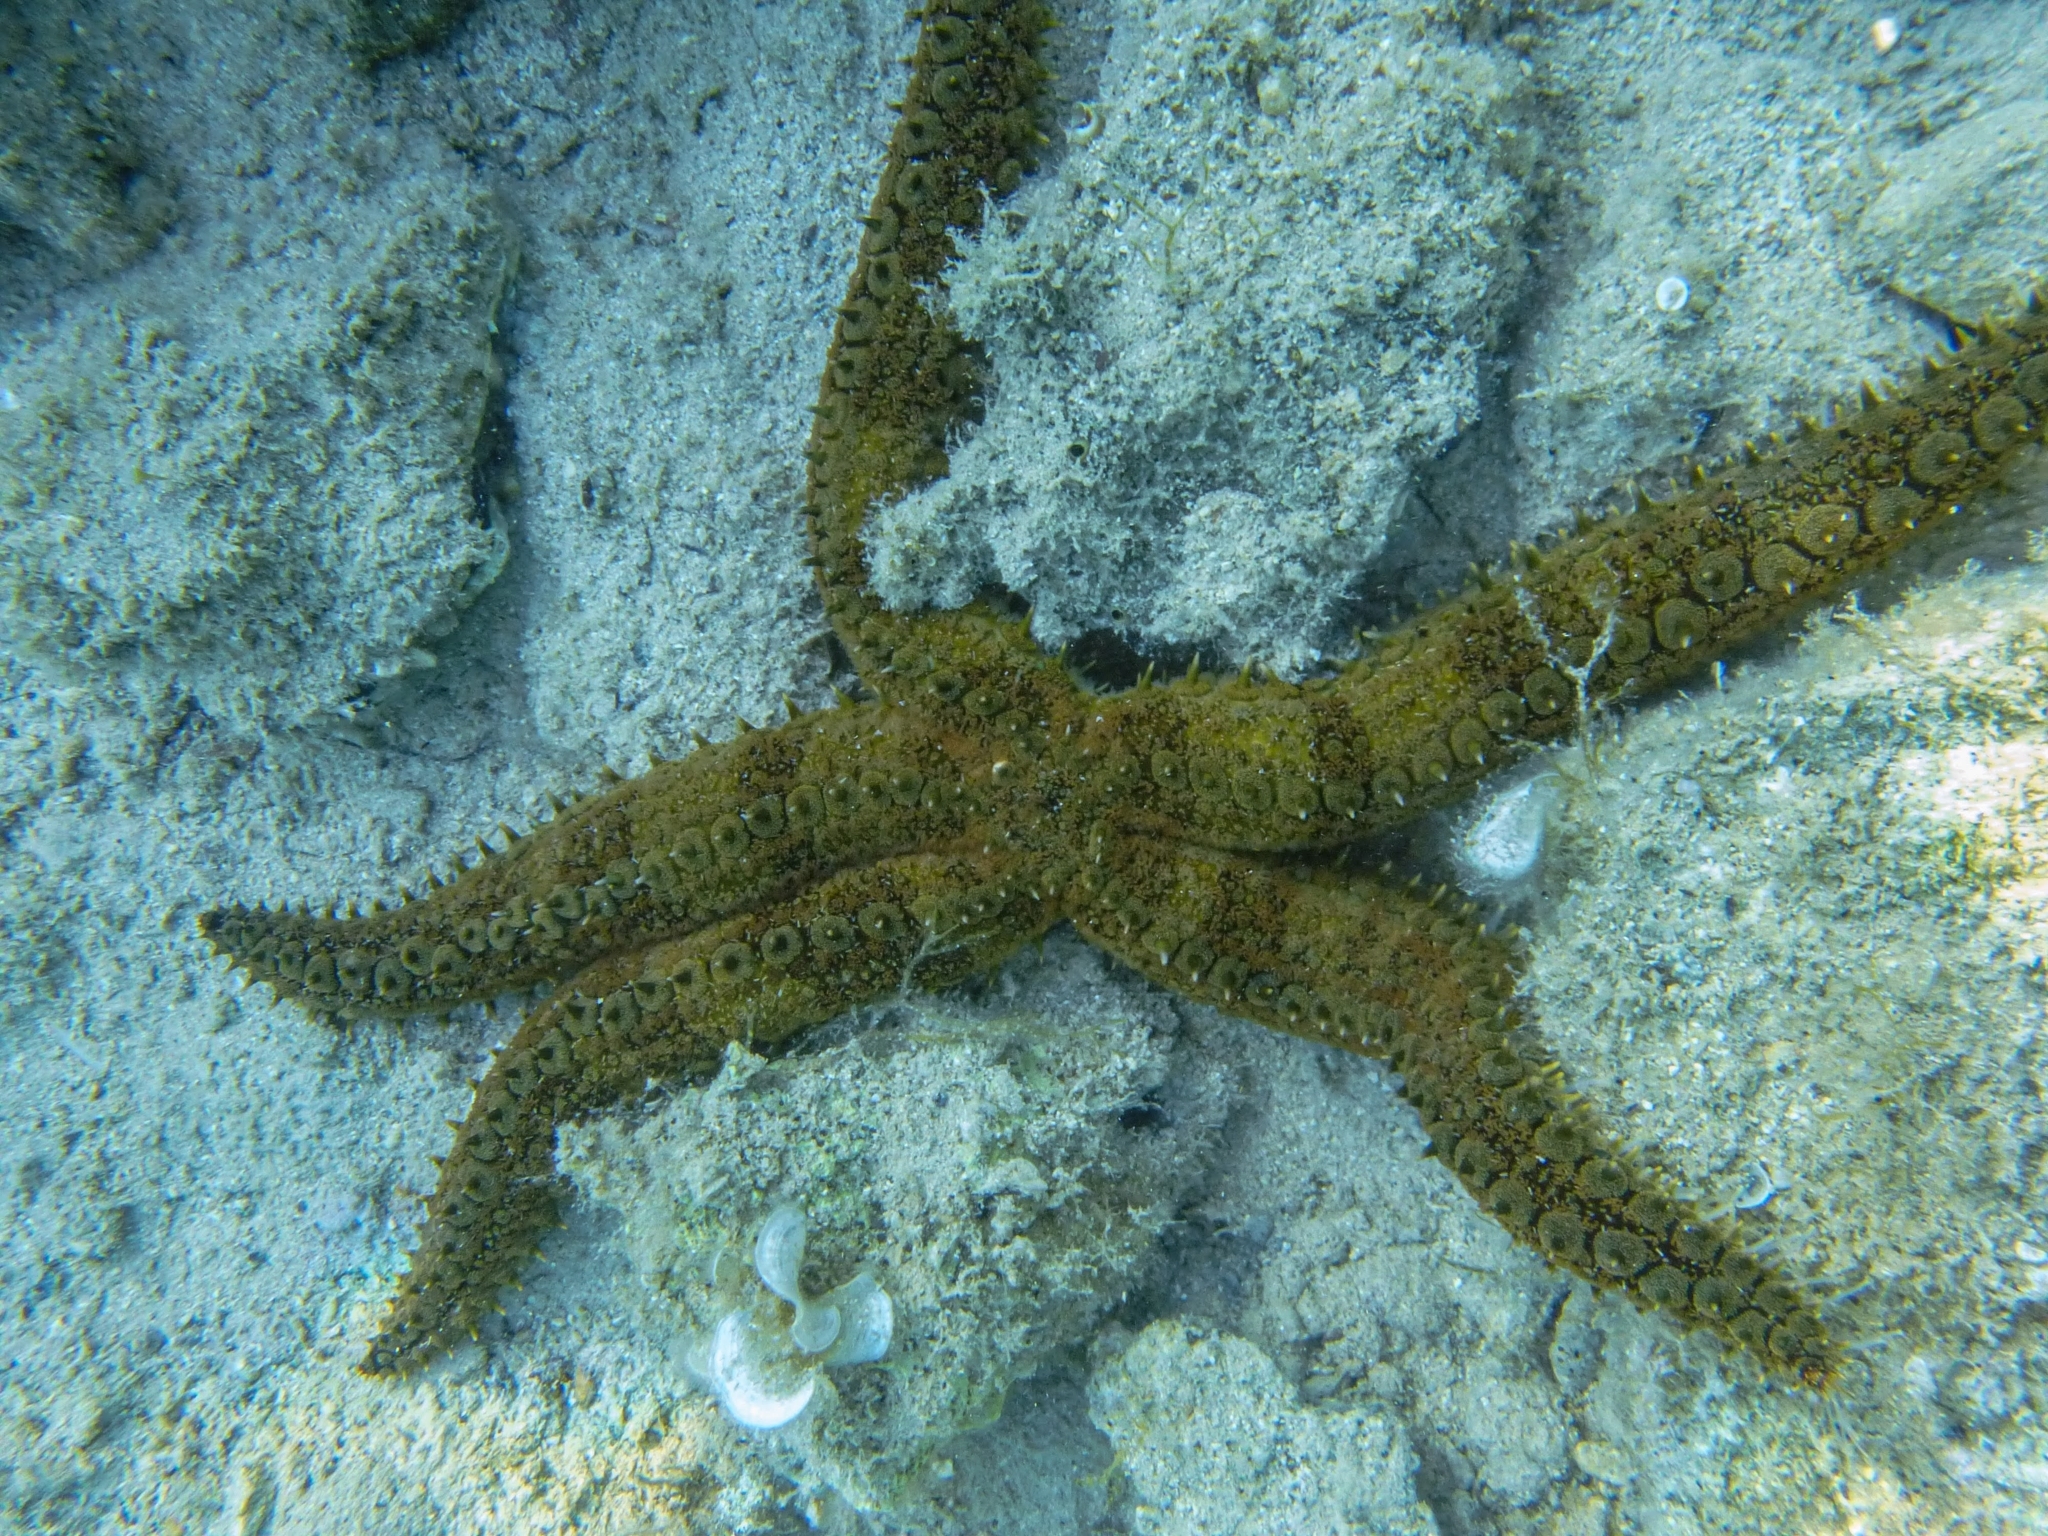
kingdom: Animalia
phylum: Echinodermata
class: Asteroidea
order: Forcipulatida
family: Asteriidae
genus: Marthasterias
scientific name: Marthasterias glacialis
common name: Spiny starfish
